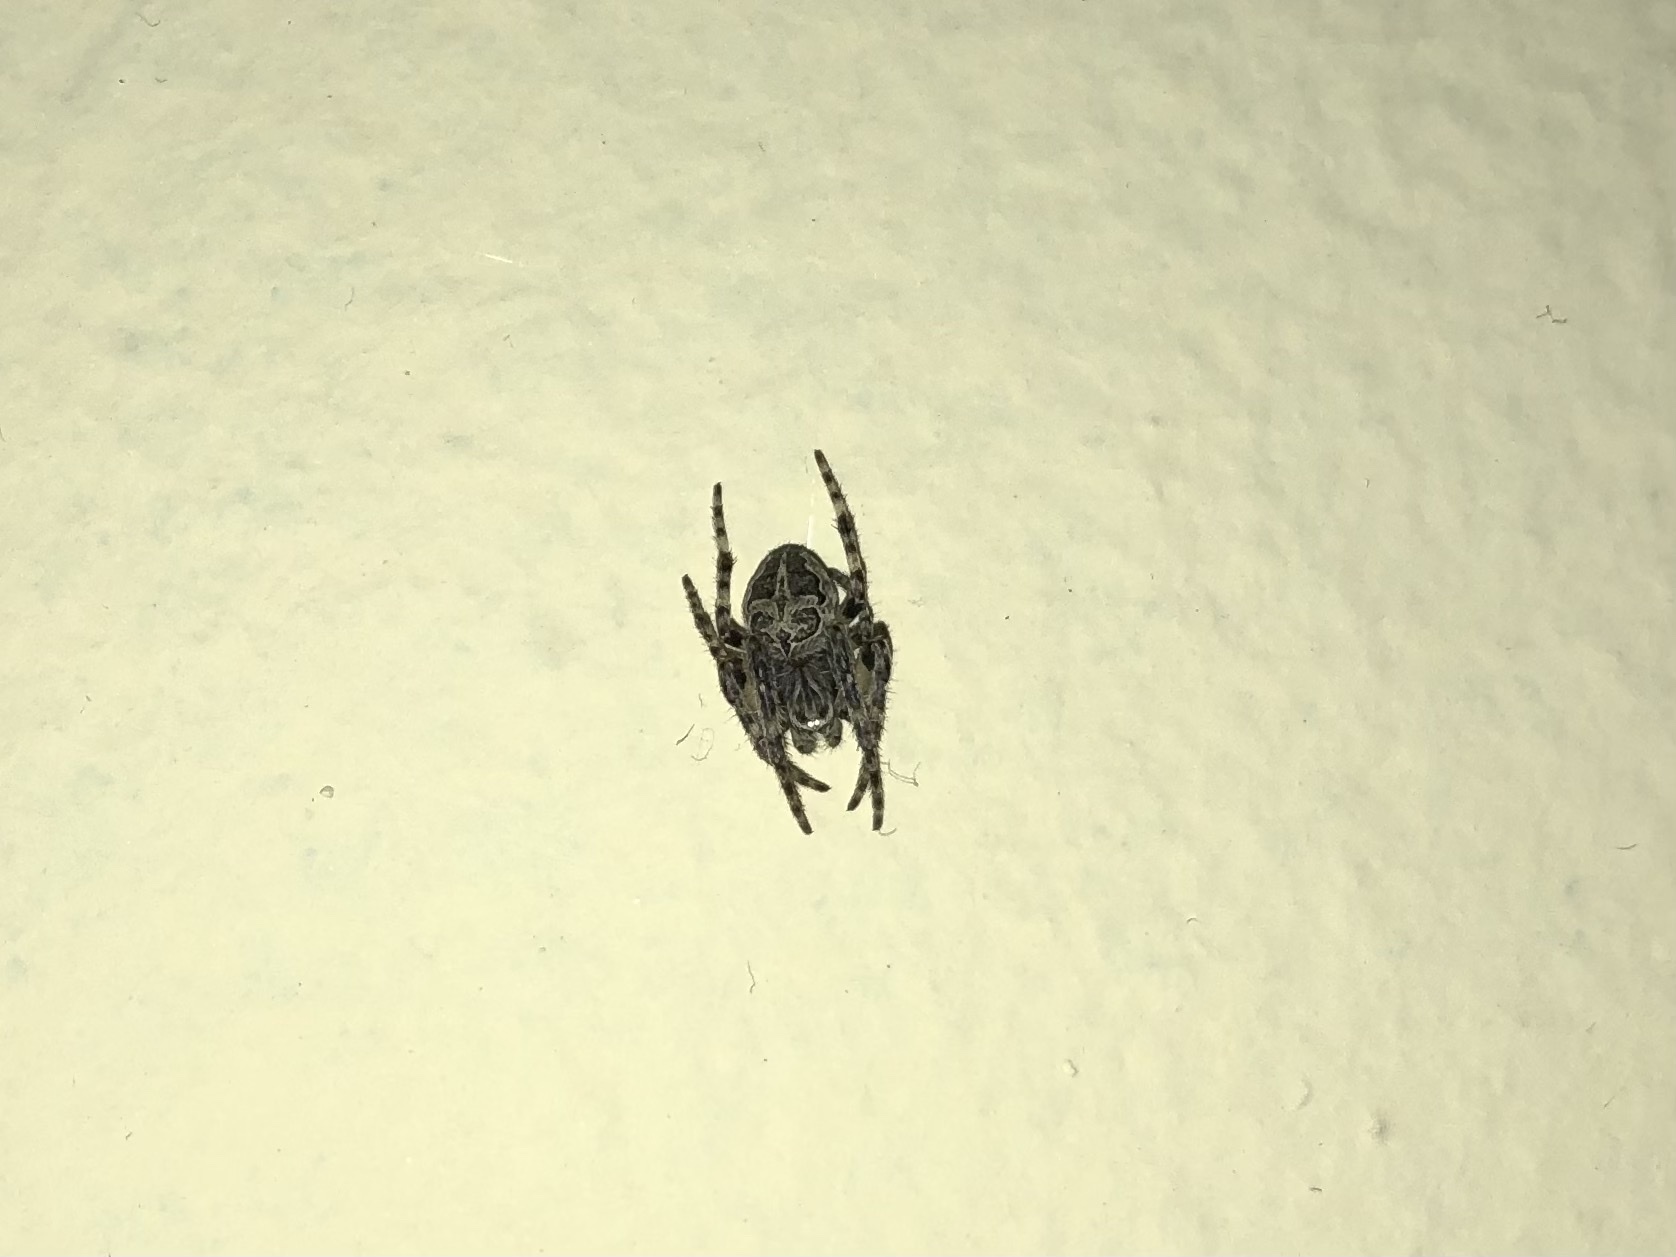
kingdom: Animalia
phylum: Arthropoda
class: Arachnida
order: Araneae
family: Araneidae
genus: Larinioides
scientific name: Larinioides sclopetarius
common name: Bridge orbweaver
